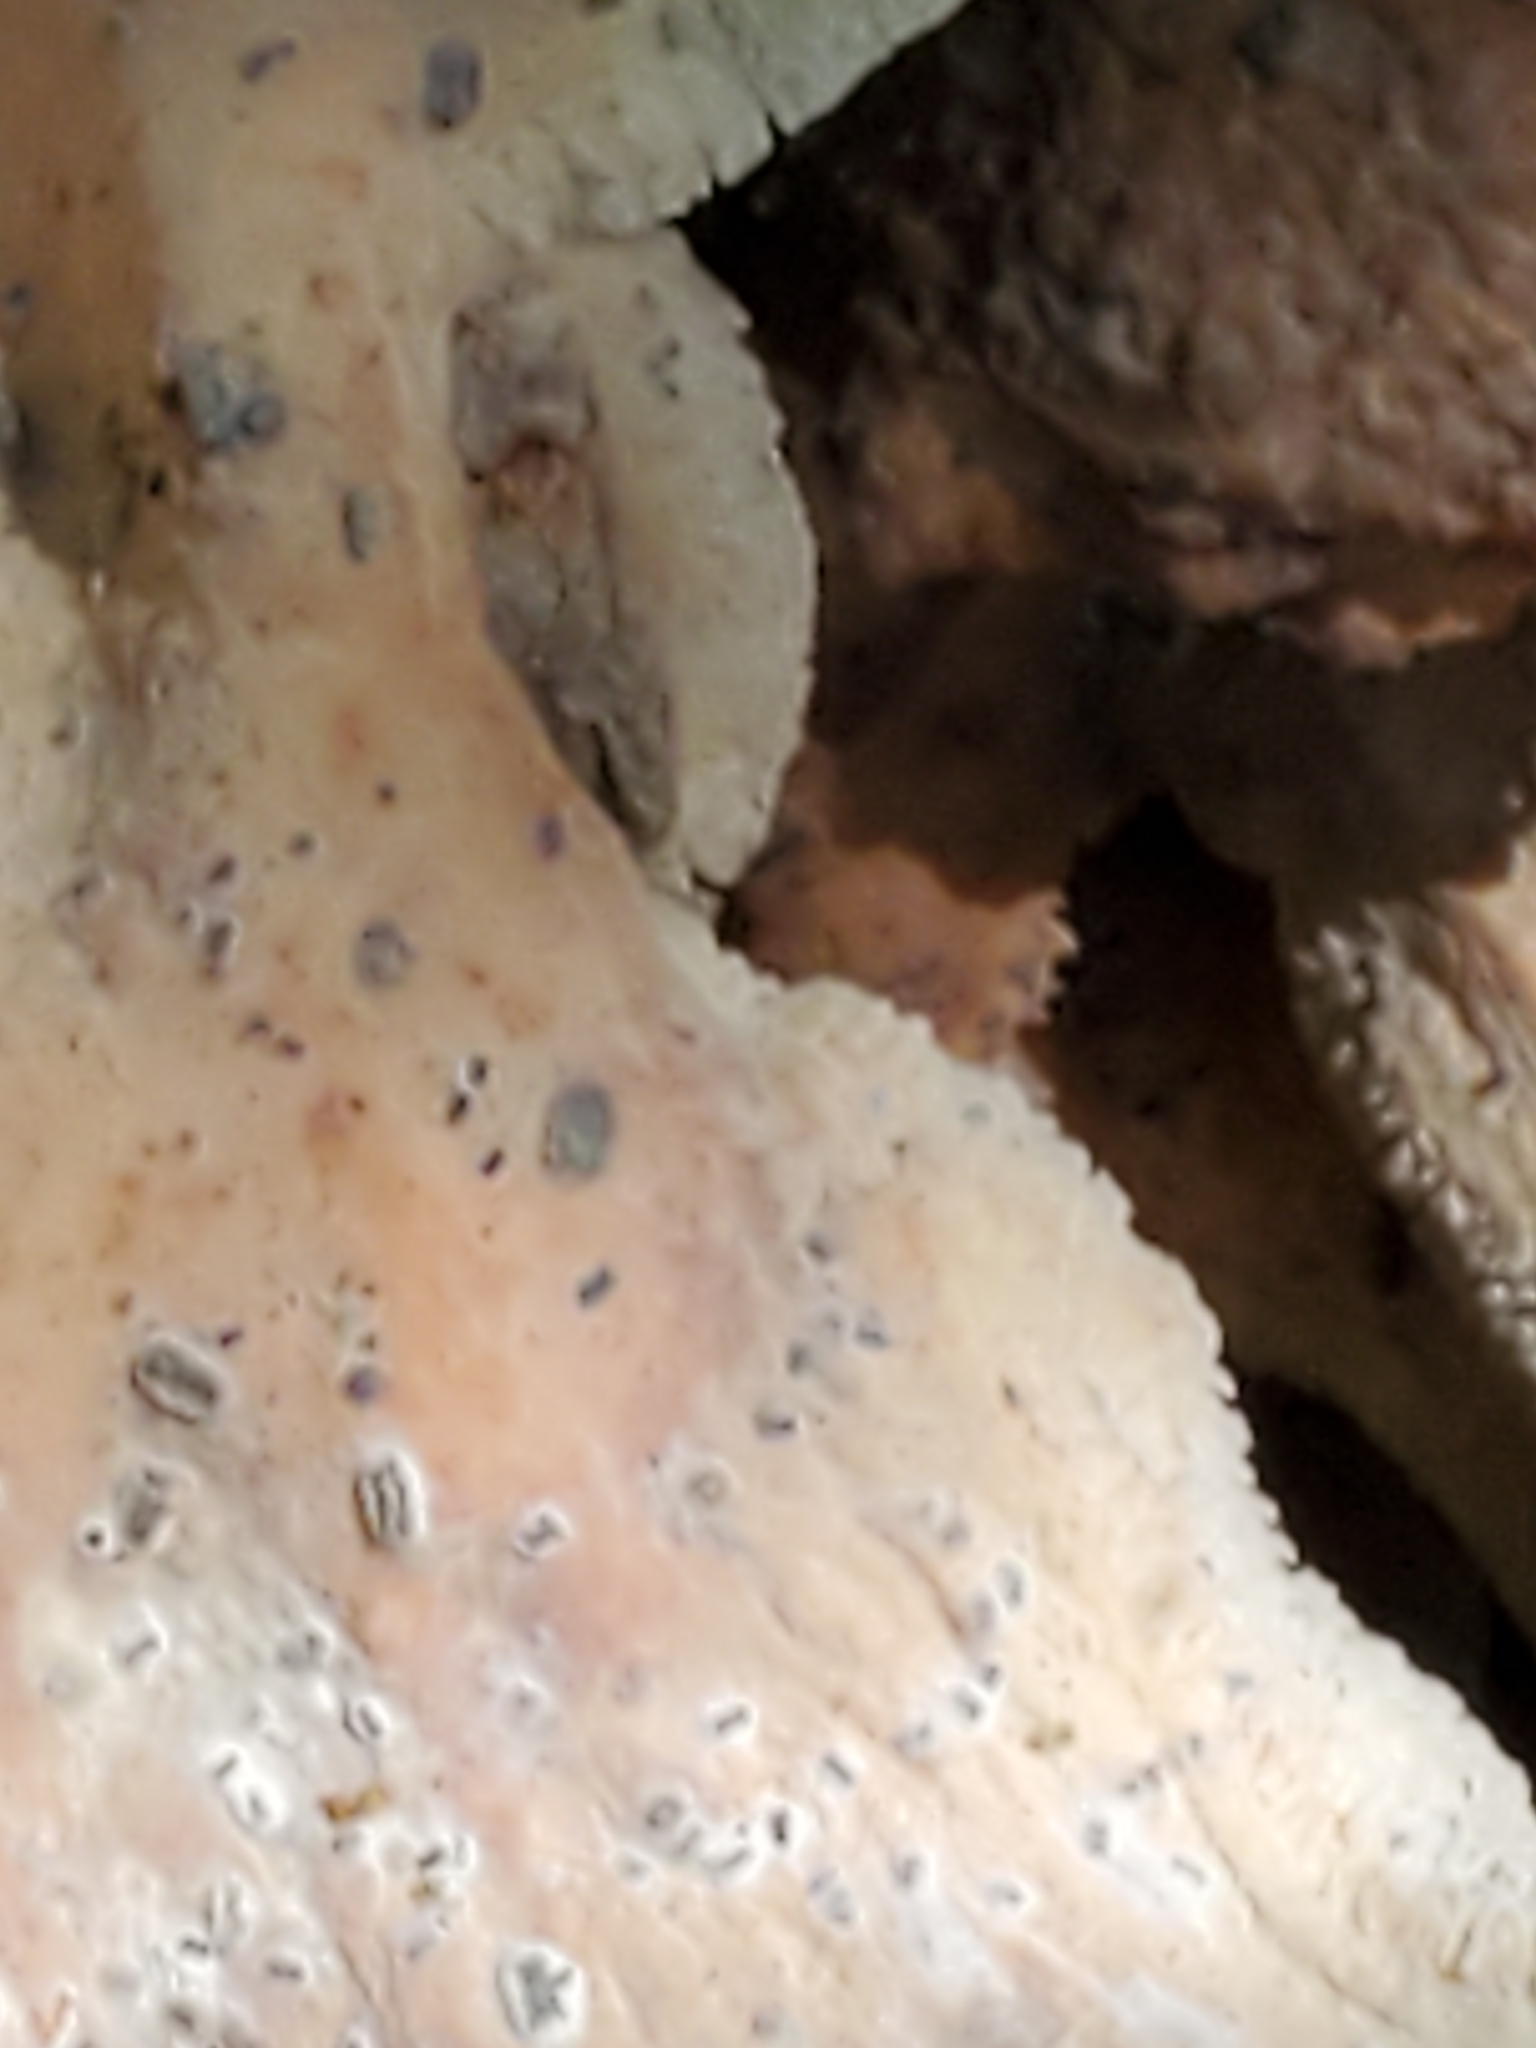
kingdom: Fungi
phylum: Basidiomycota
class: Agaricomycetes
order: Russulales
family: Bondarzewiaceae
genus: Bondarzewia
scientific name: Bondarzewia berkeleyi
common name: Berkeley's polypore
